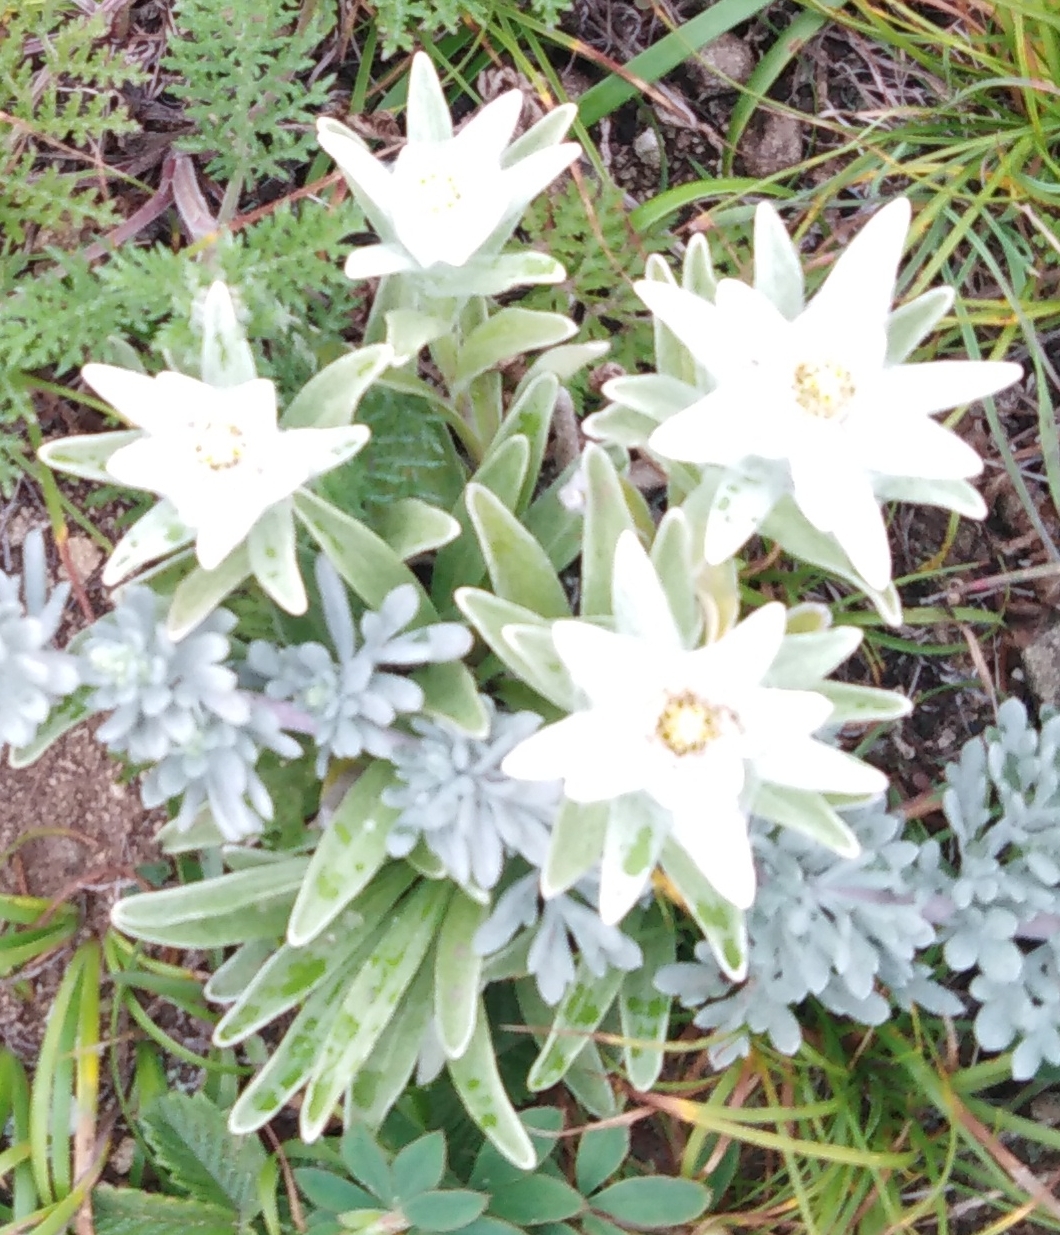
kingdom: Plantae
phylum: Tracheophyta
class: Magnoliopsida
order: Asterales
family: Asteraceae
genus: Leontopodium
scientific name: Leontopodium palibinianum
